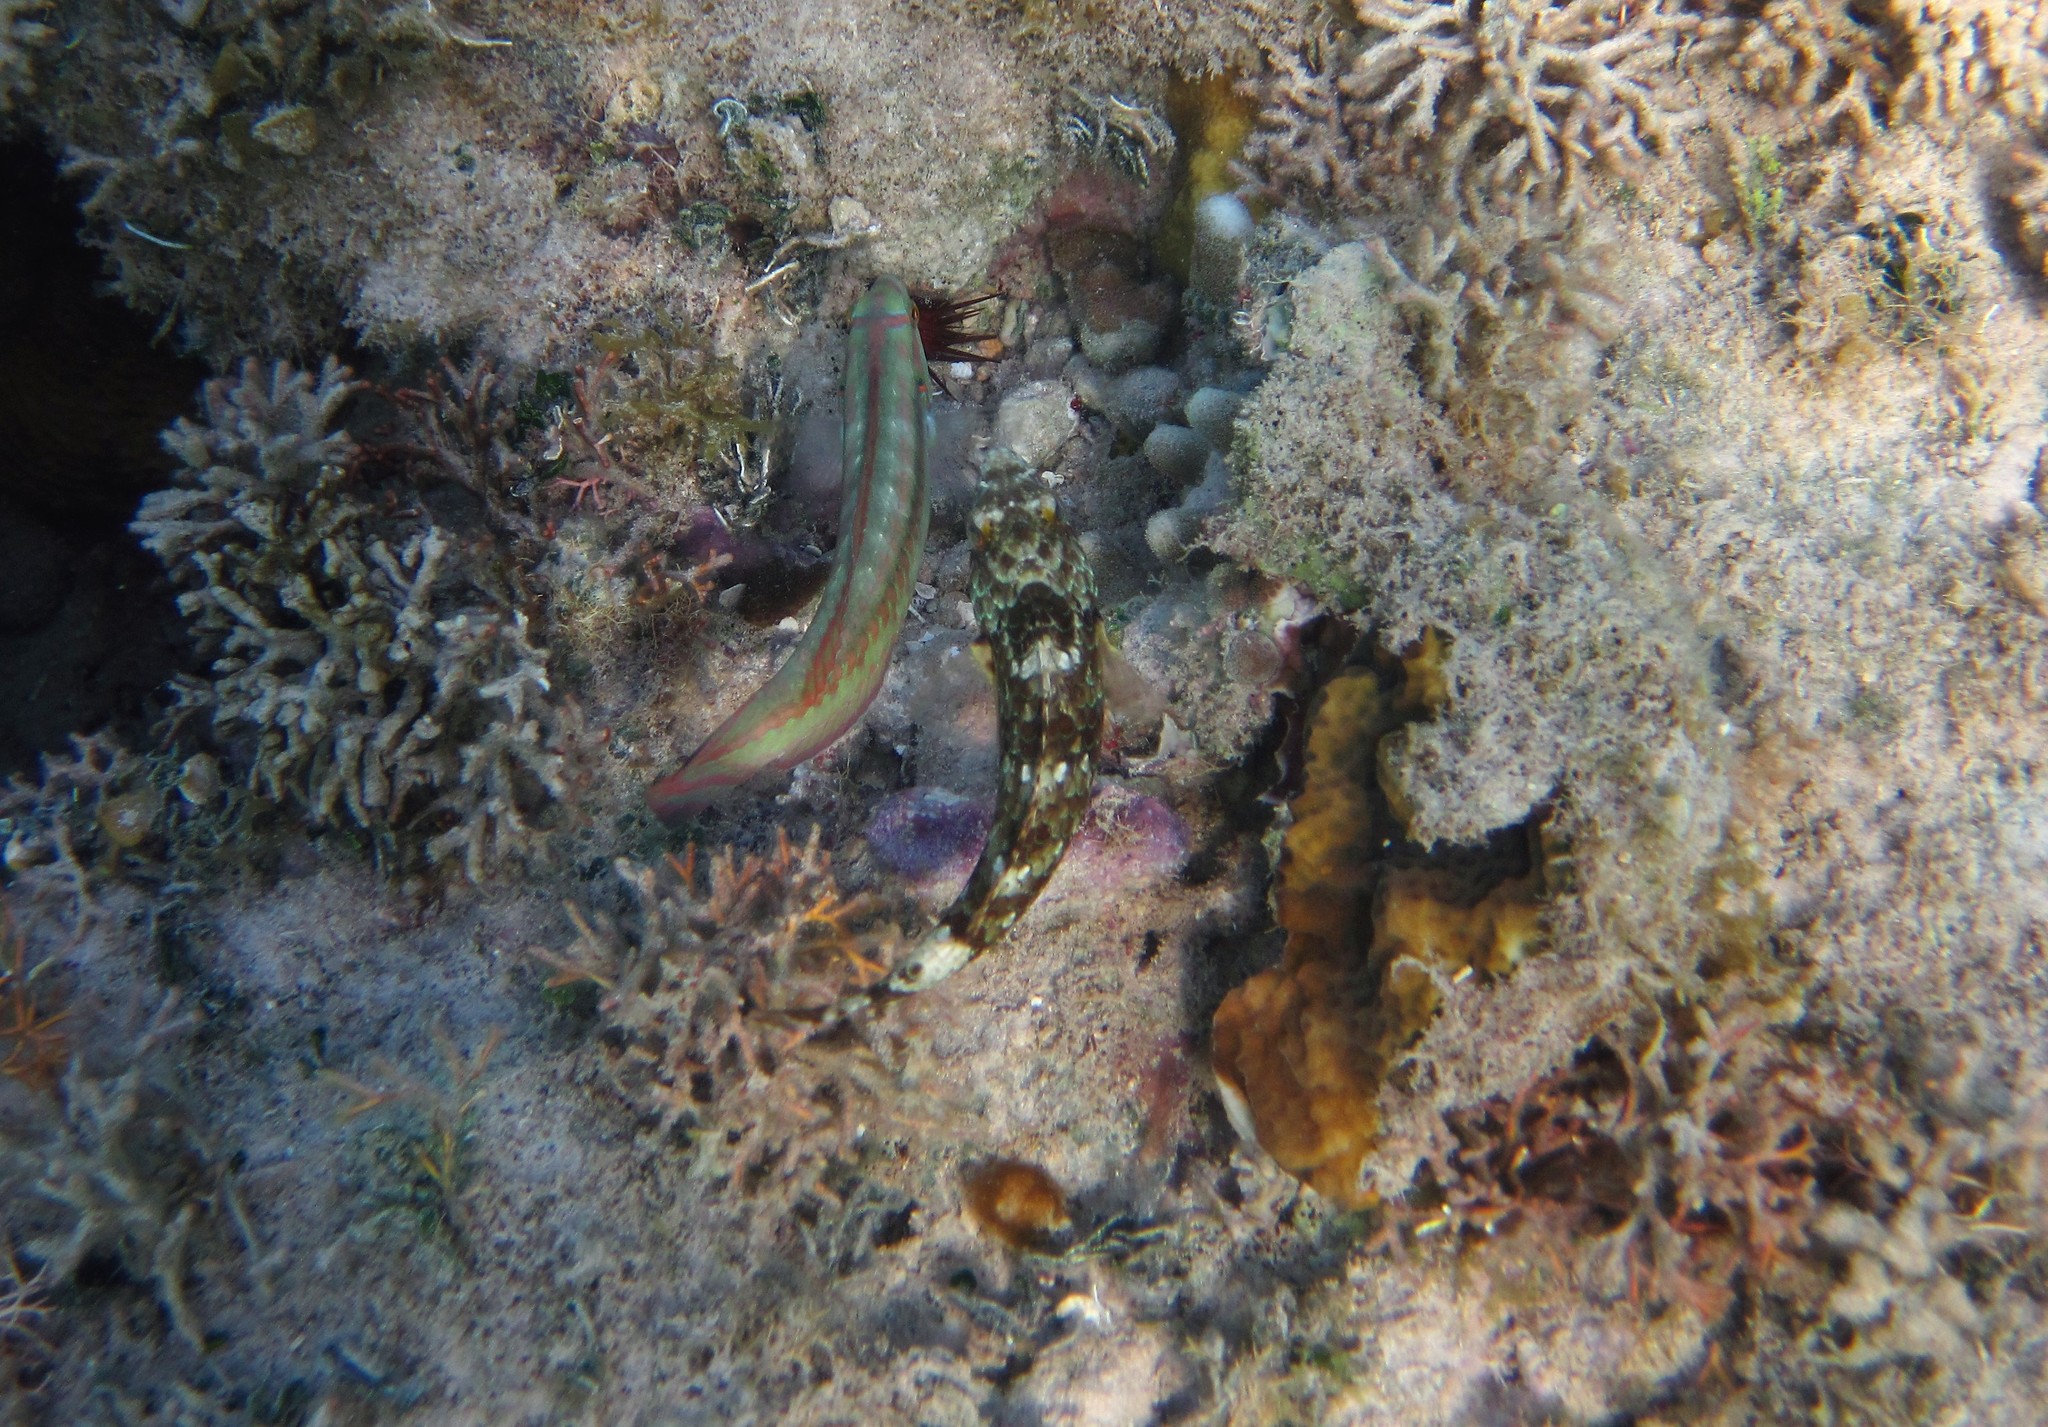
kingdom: Animalia
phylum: Chordata
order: Perciformes
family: Labridae
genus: Halichoeres
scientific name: Halichoeres bivittatus
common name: Slippery dick
